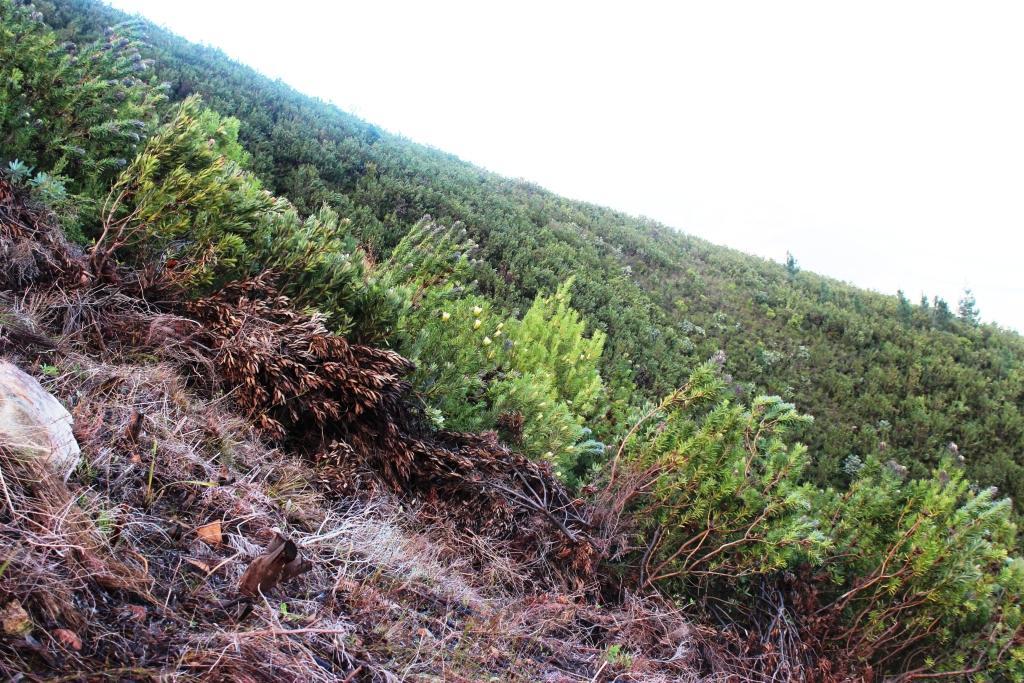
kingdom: Plantae
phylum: Tracheophyta
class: Magnoliopsida
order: Proteales
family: Proteaceae
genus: Protea
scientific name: Protea repens
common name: Sugarbush
